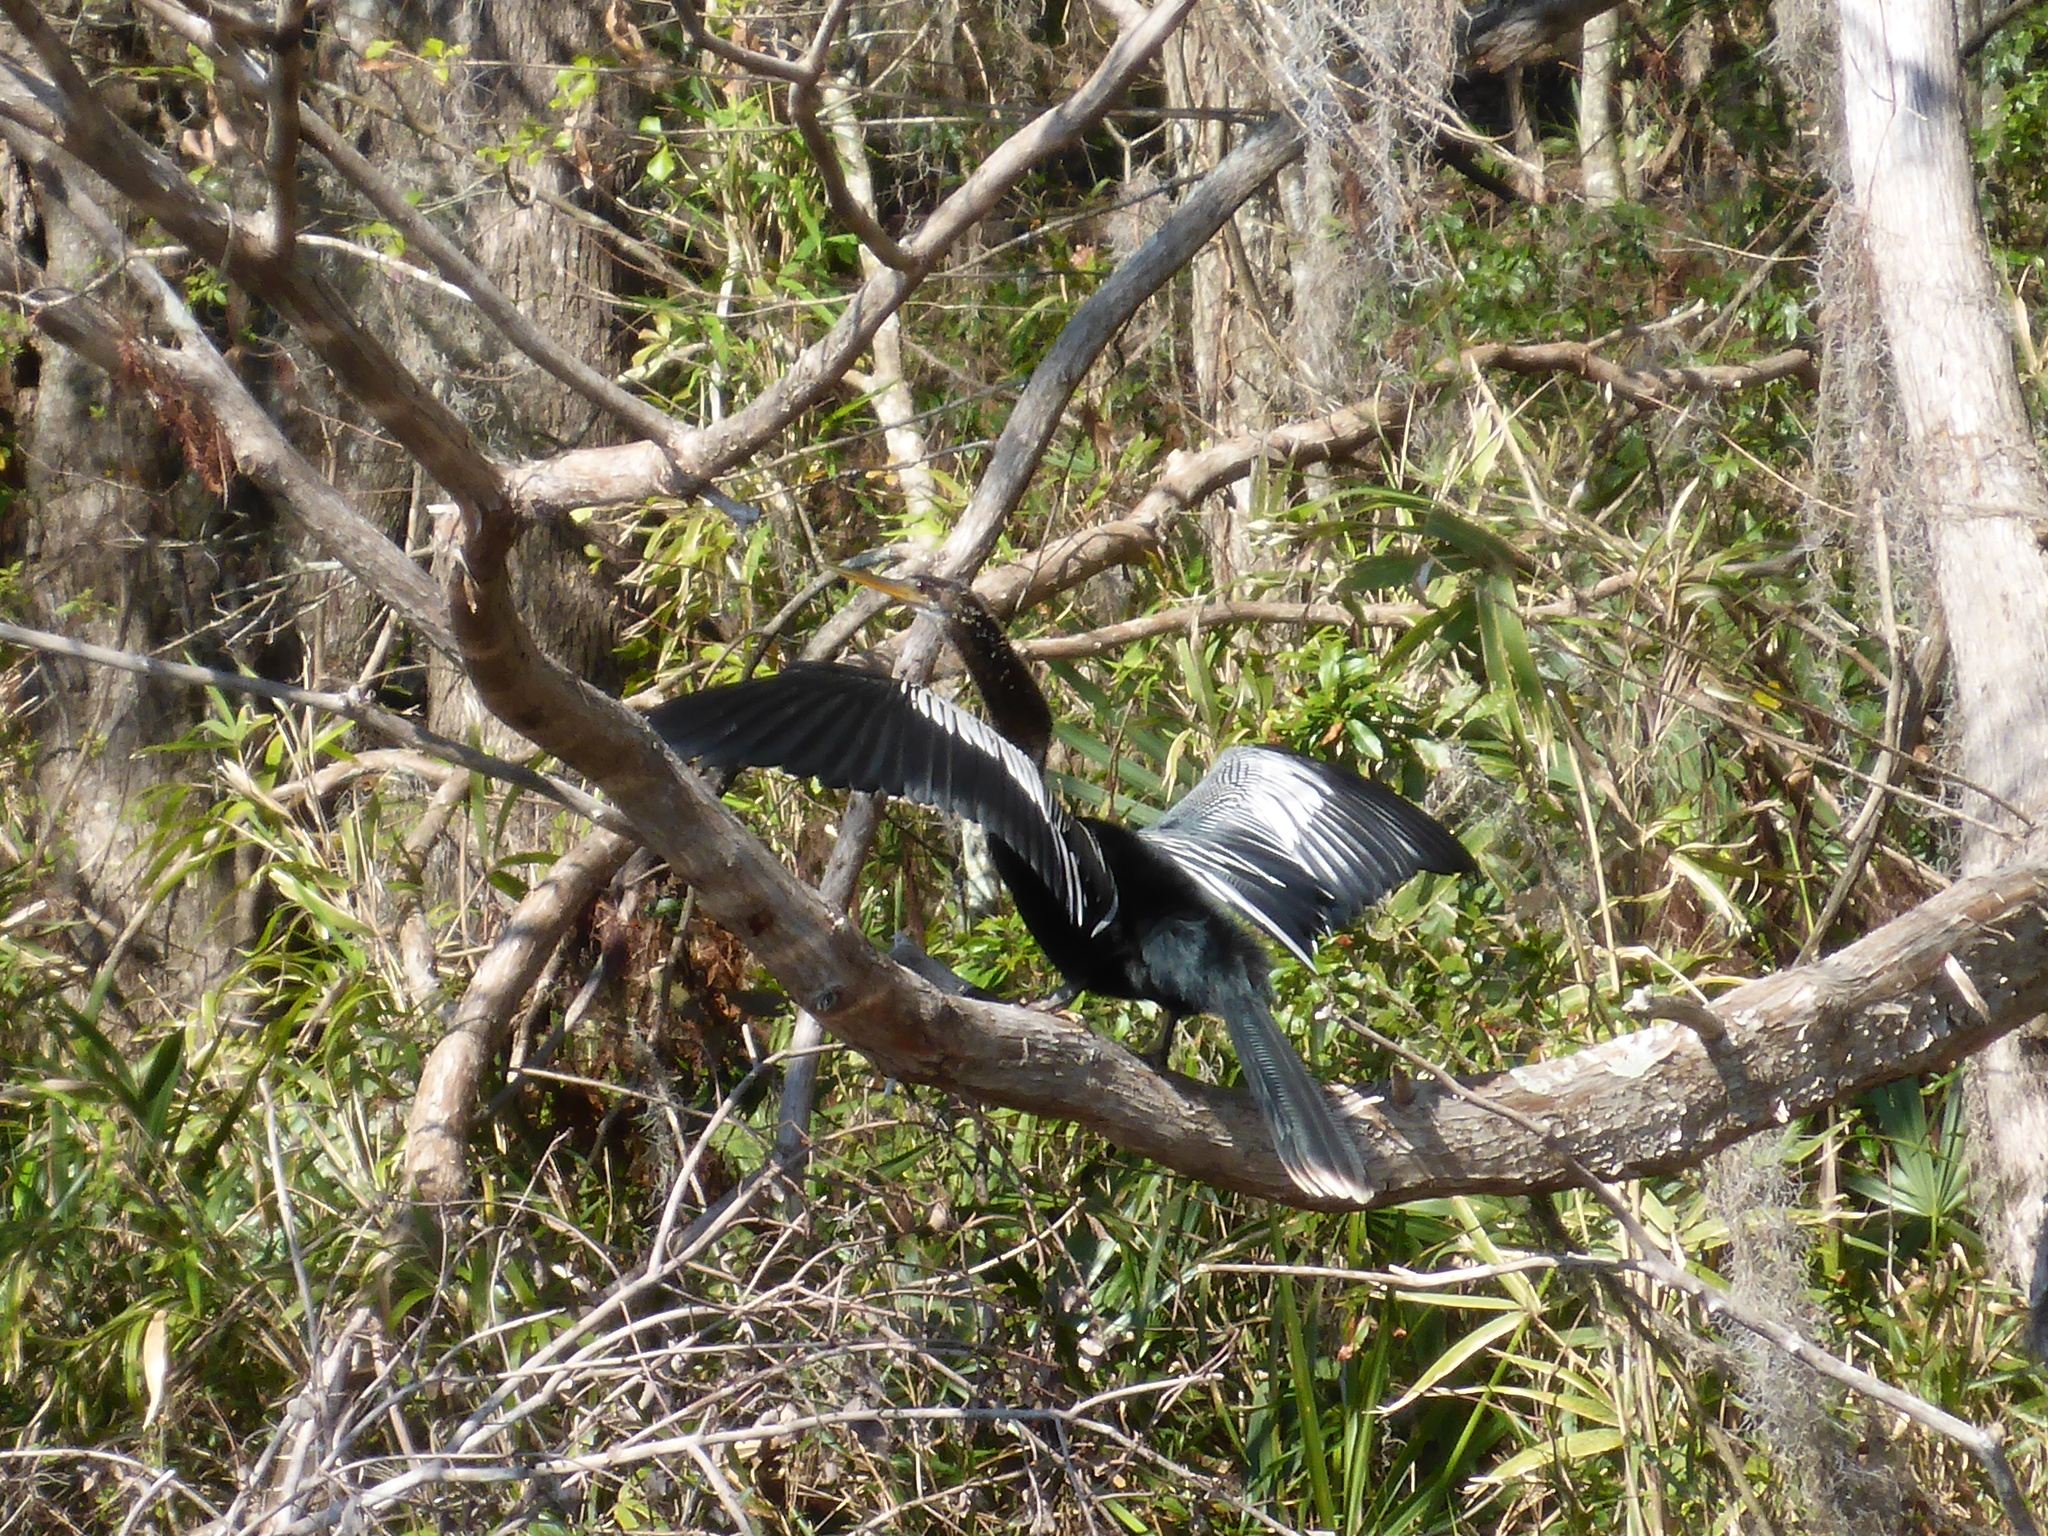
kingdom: Animalia
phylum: Chordata
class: Aves
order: Suliformes
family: Anhingidae
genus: Anhinga
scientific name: Anhinga anhinga
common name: Anhinga
